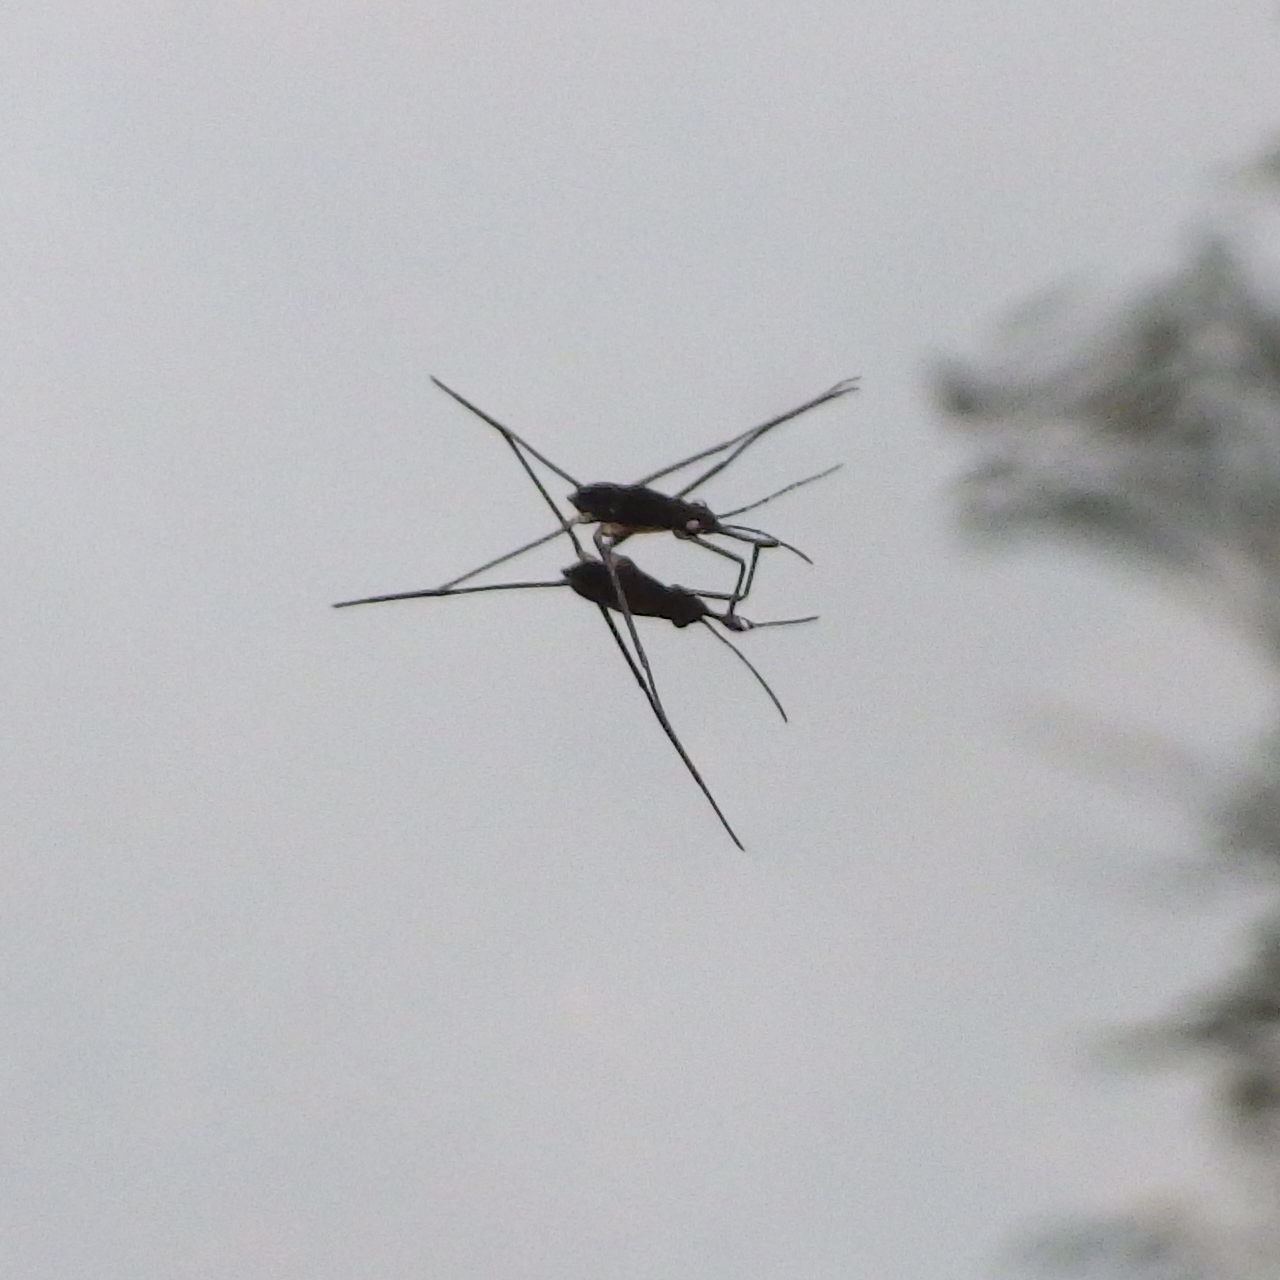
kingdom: Animalia
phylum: Arthropoda
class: Insecta
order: Hemiptera
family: Gerridae
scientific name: Gerridae
